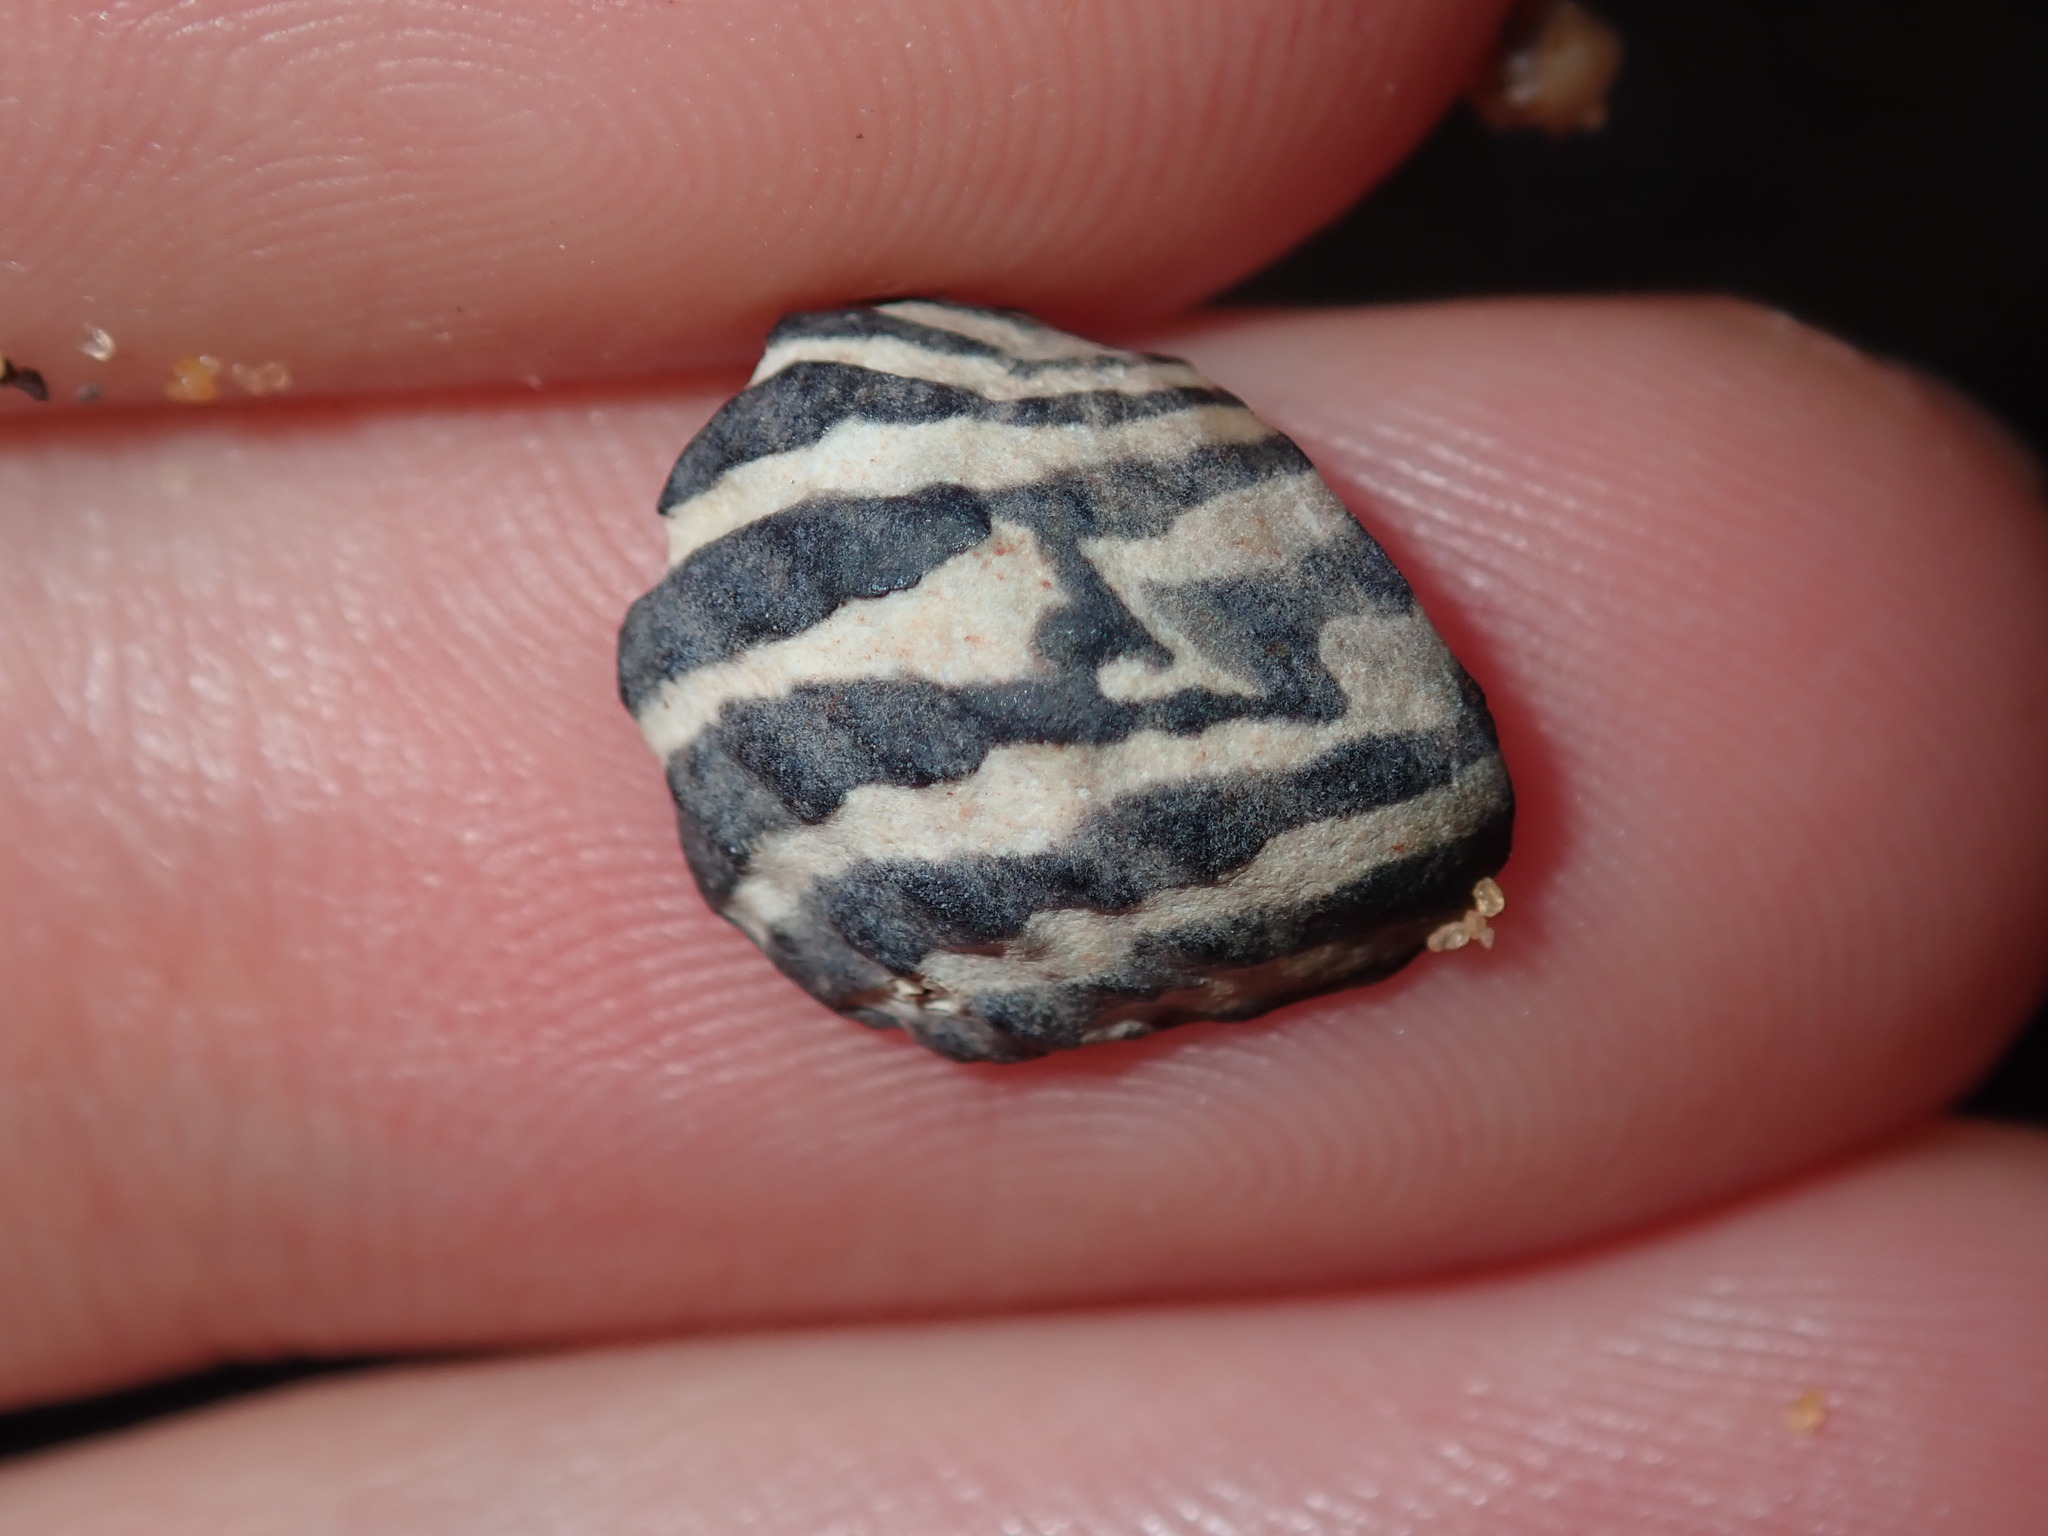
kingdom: Animalia
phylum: Mollusca
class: Gastropoda
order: Trochida
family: Trochidae
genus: Austrocochlea
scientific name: Austrocochlea porcata
